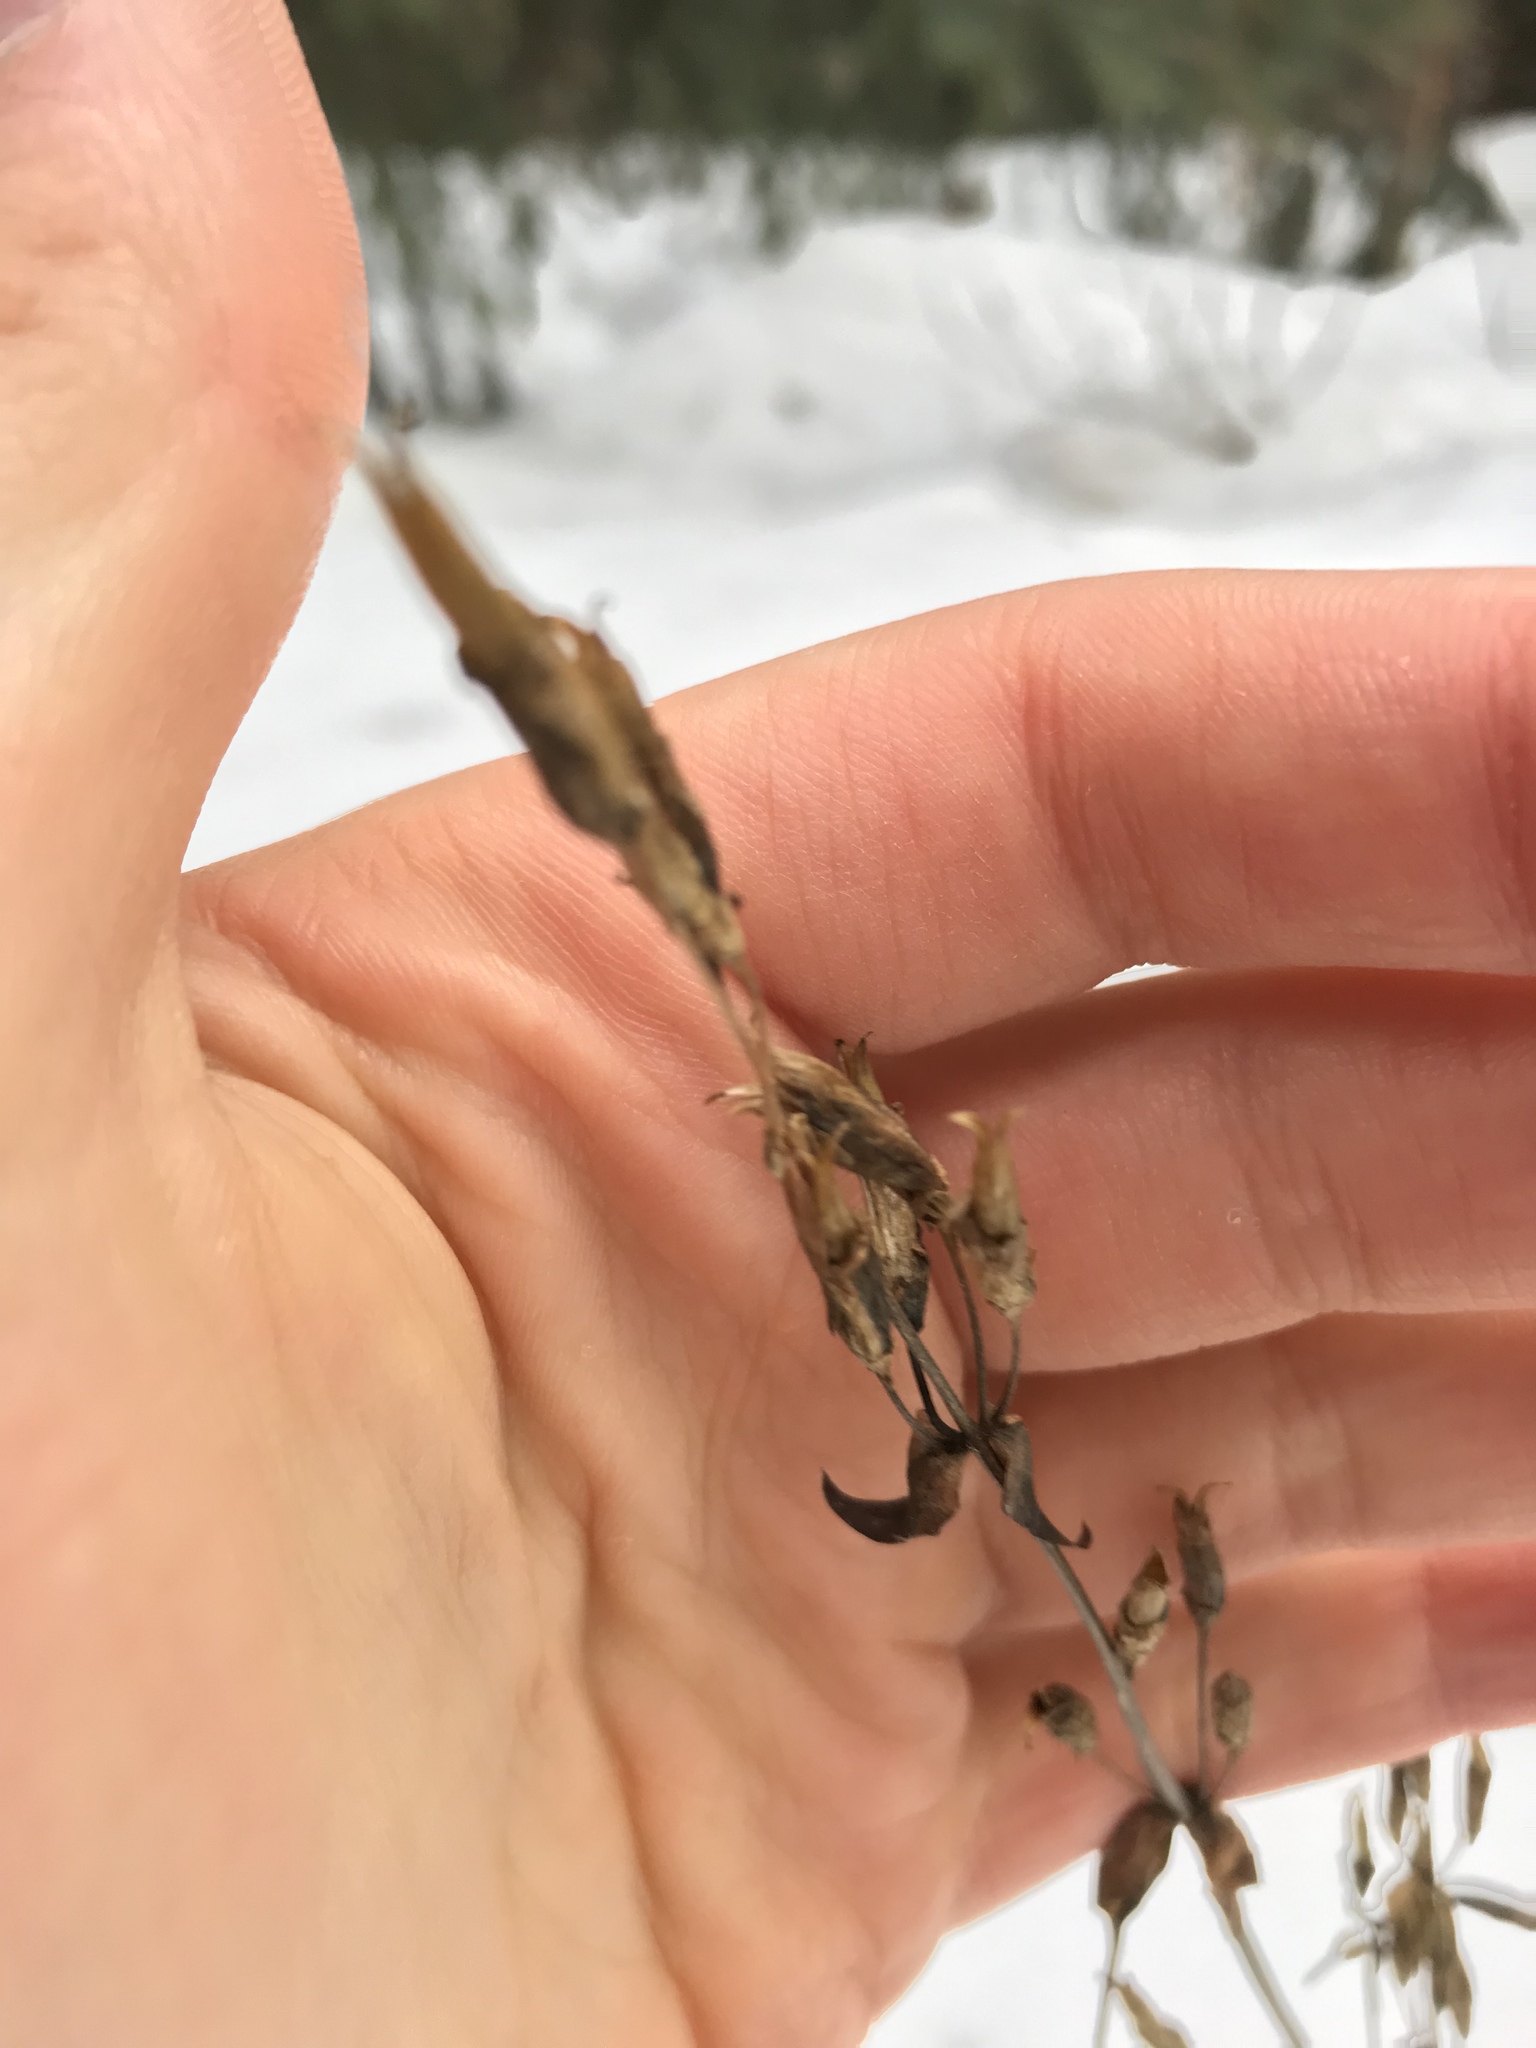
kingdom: Plantae
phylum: Tracheophyta
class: Magnoliopsida
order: Gentianales
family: Gentianaceae
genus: Gentianella
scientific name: Gentianella amarella
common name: Autumn gentian
